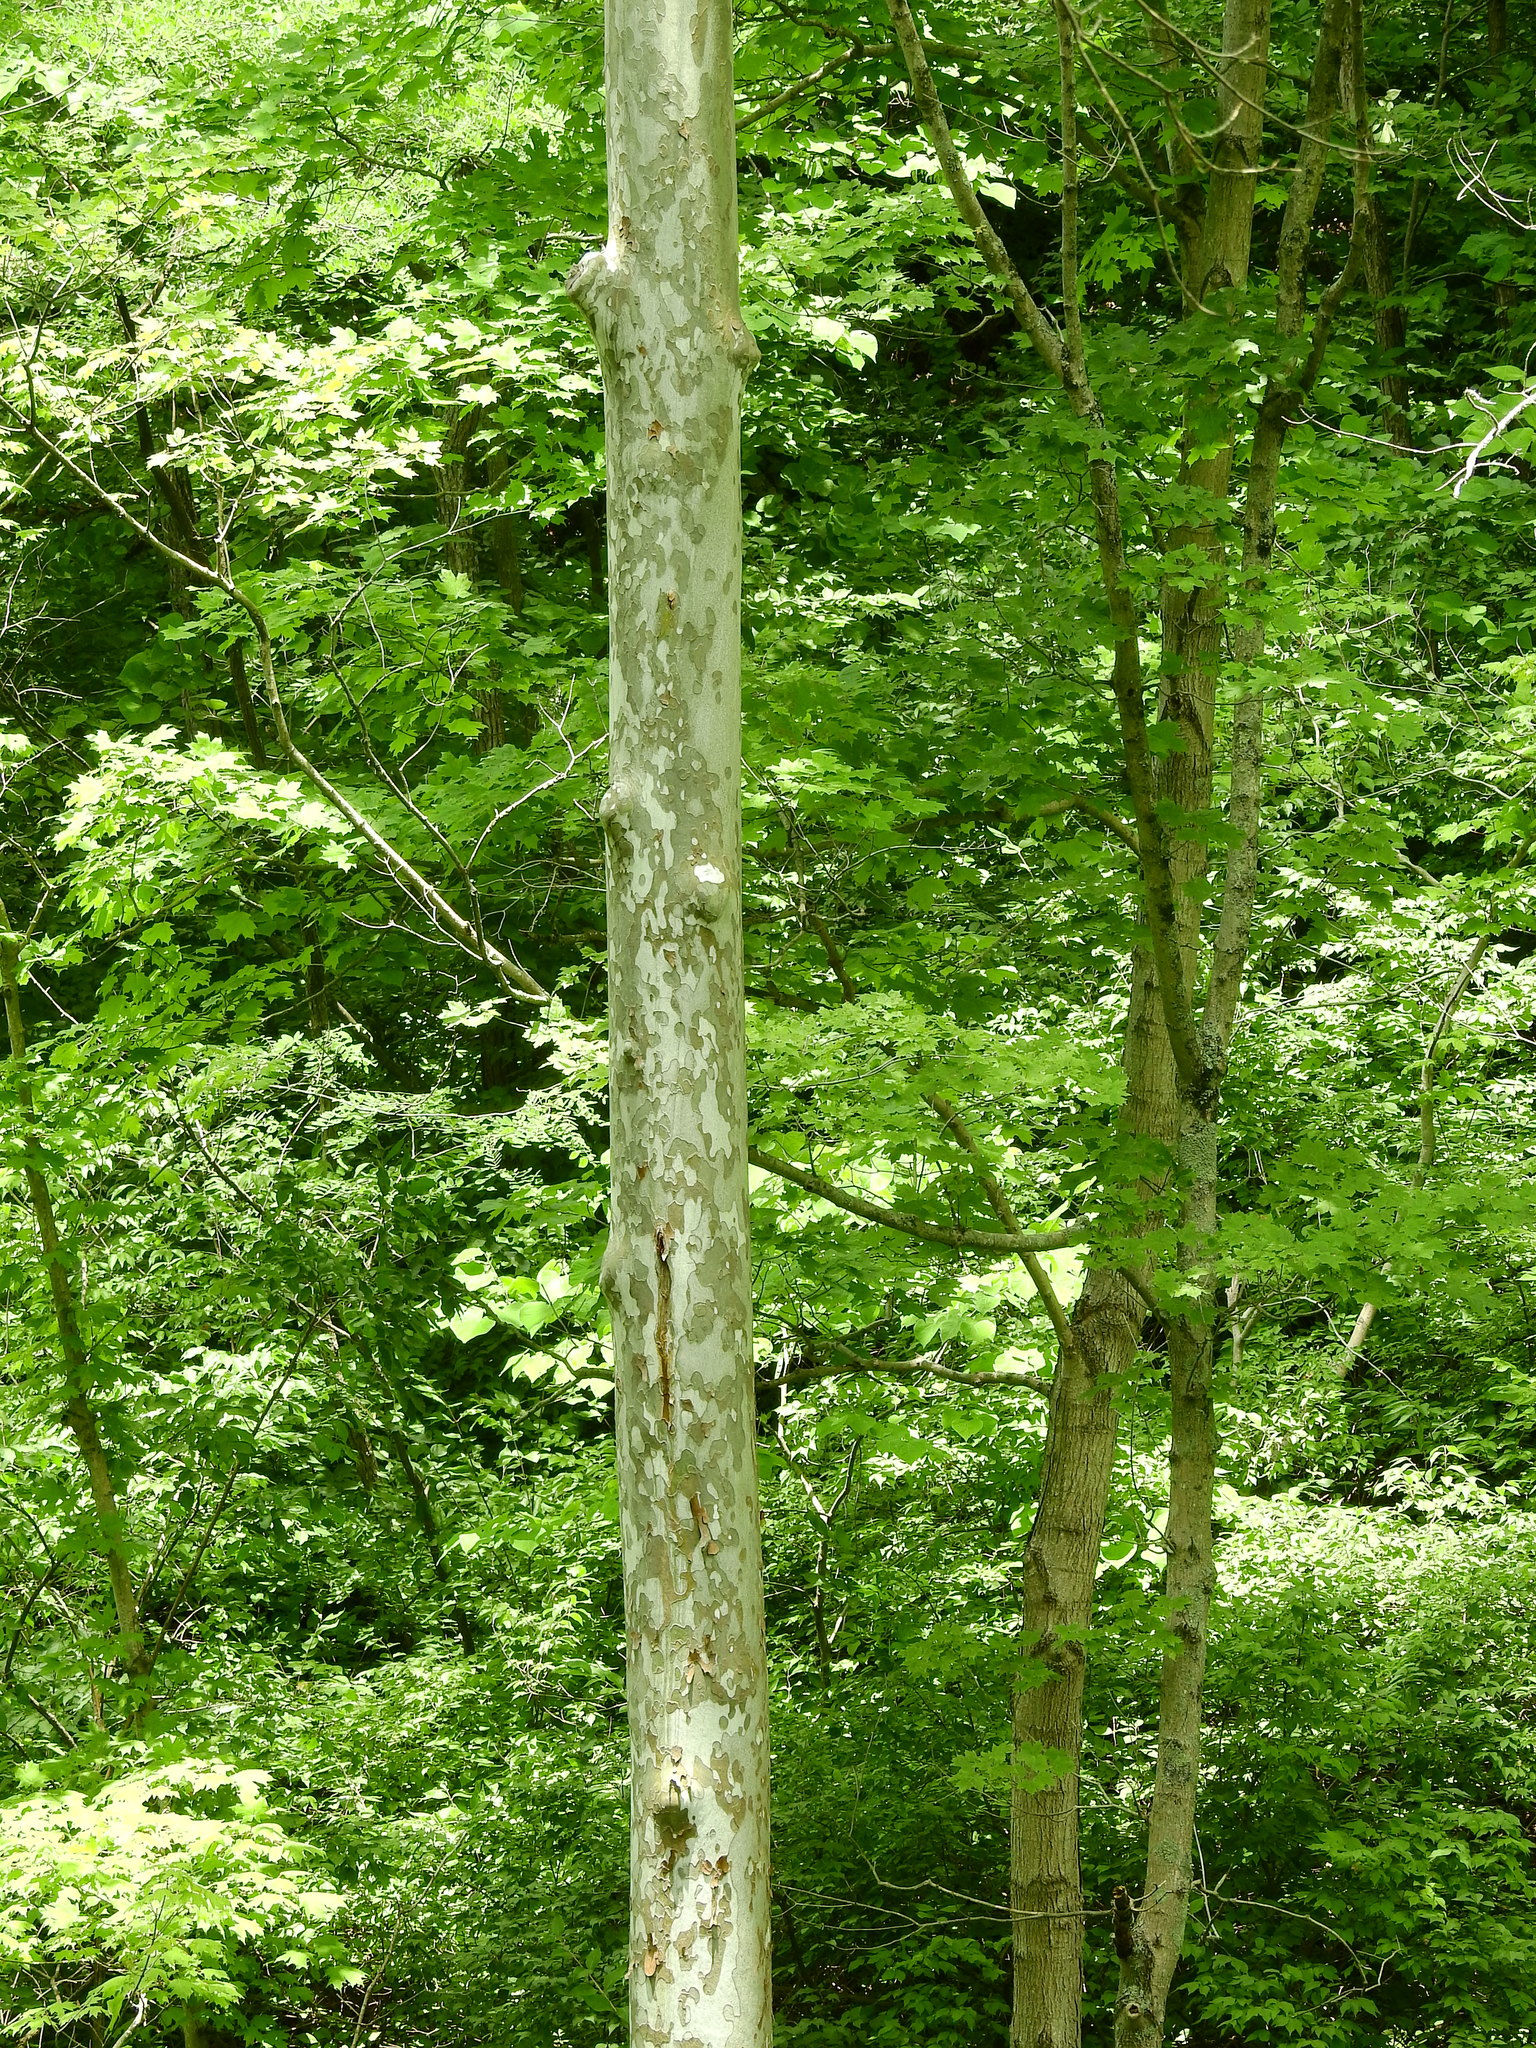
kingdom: Plantae
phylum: Tracheophyta
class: Magnoliopsida
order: Proteales
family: Platanaceae
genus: Platanus
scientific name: Platanus occidentalis
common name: American sycamore
